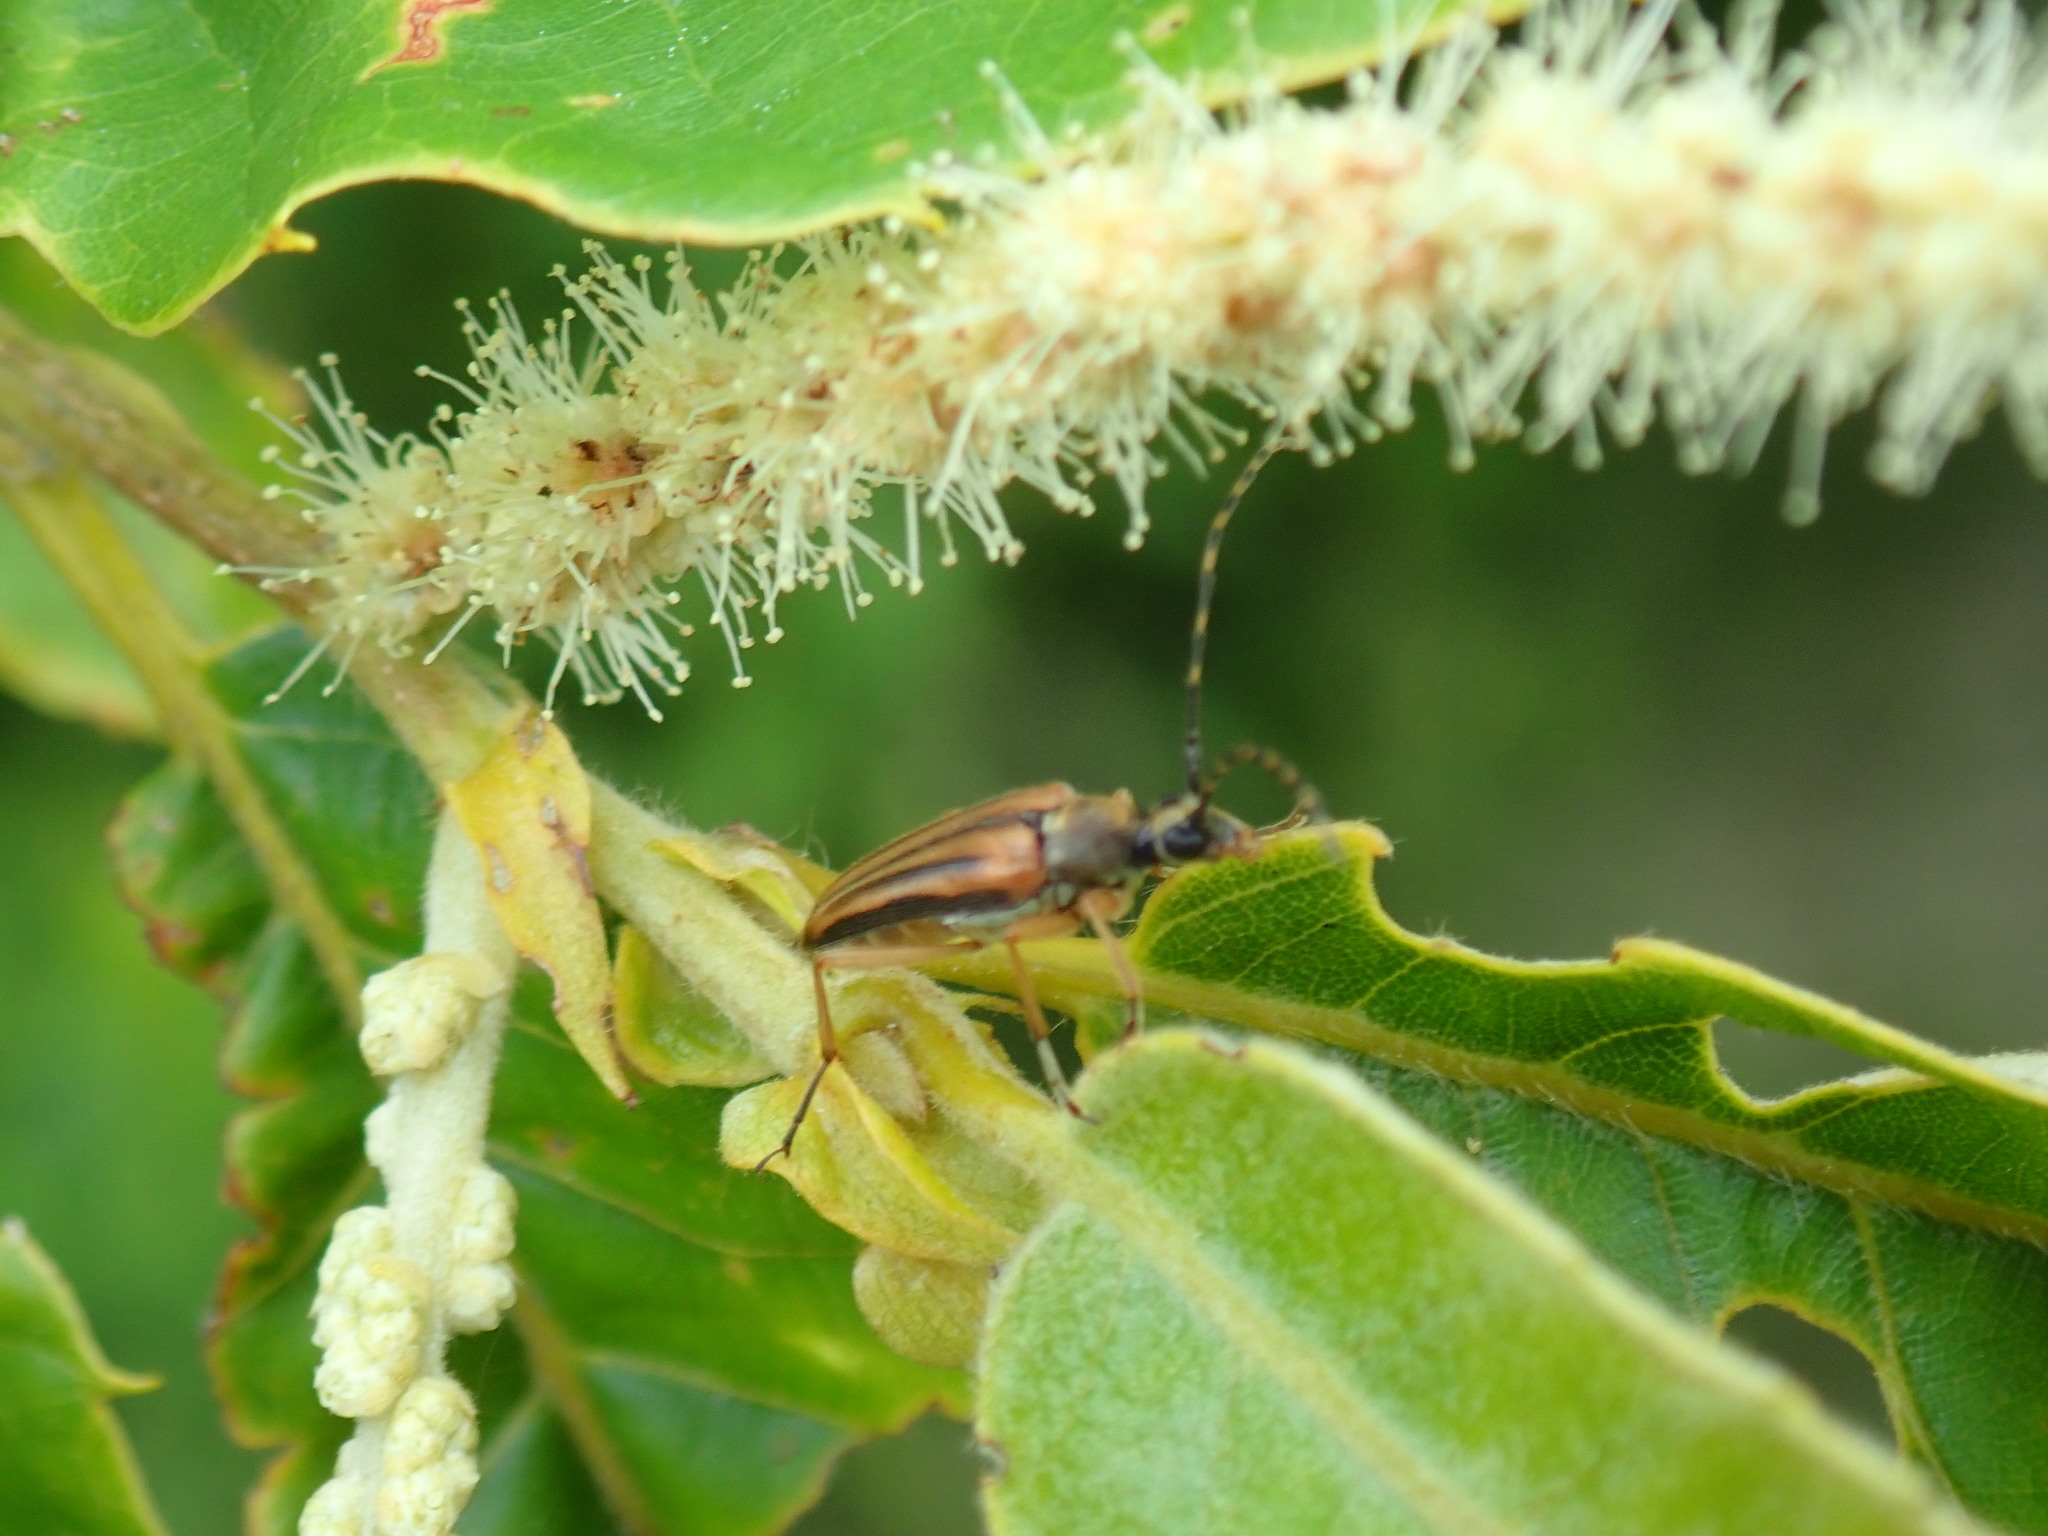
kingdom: Animalia
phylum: Arthropoda
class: Insecta
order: Coleoptera
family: Cerambycidae
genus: Analeptura
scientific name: Analeptura lineola
